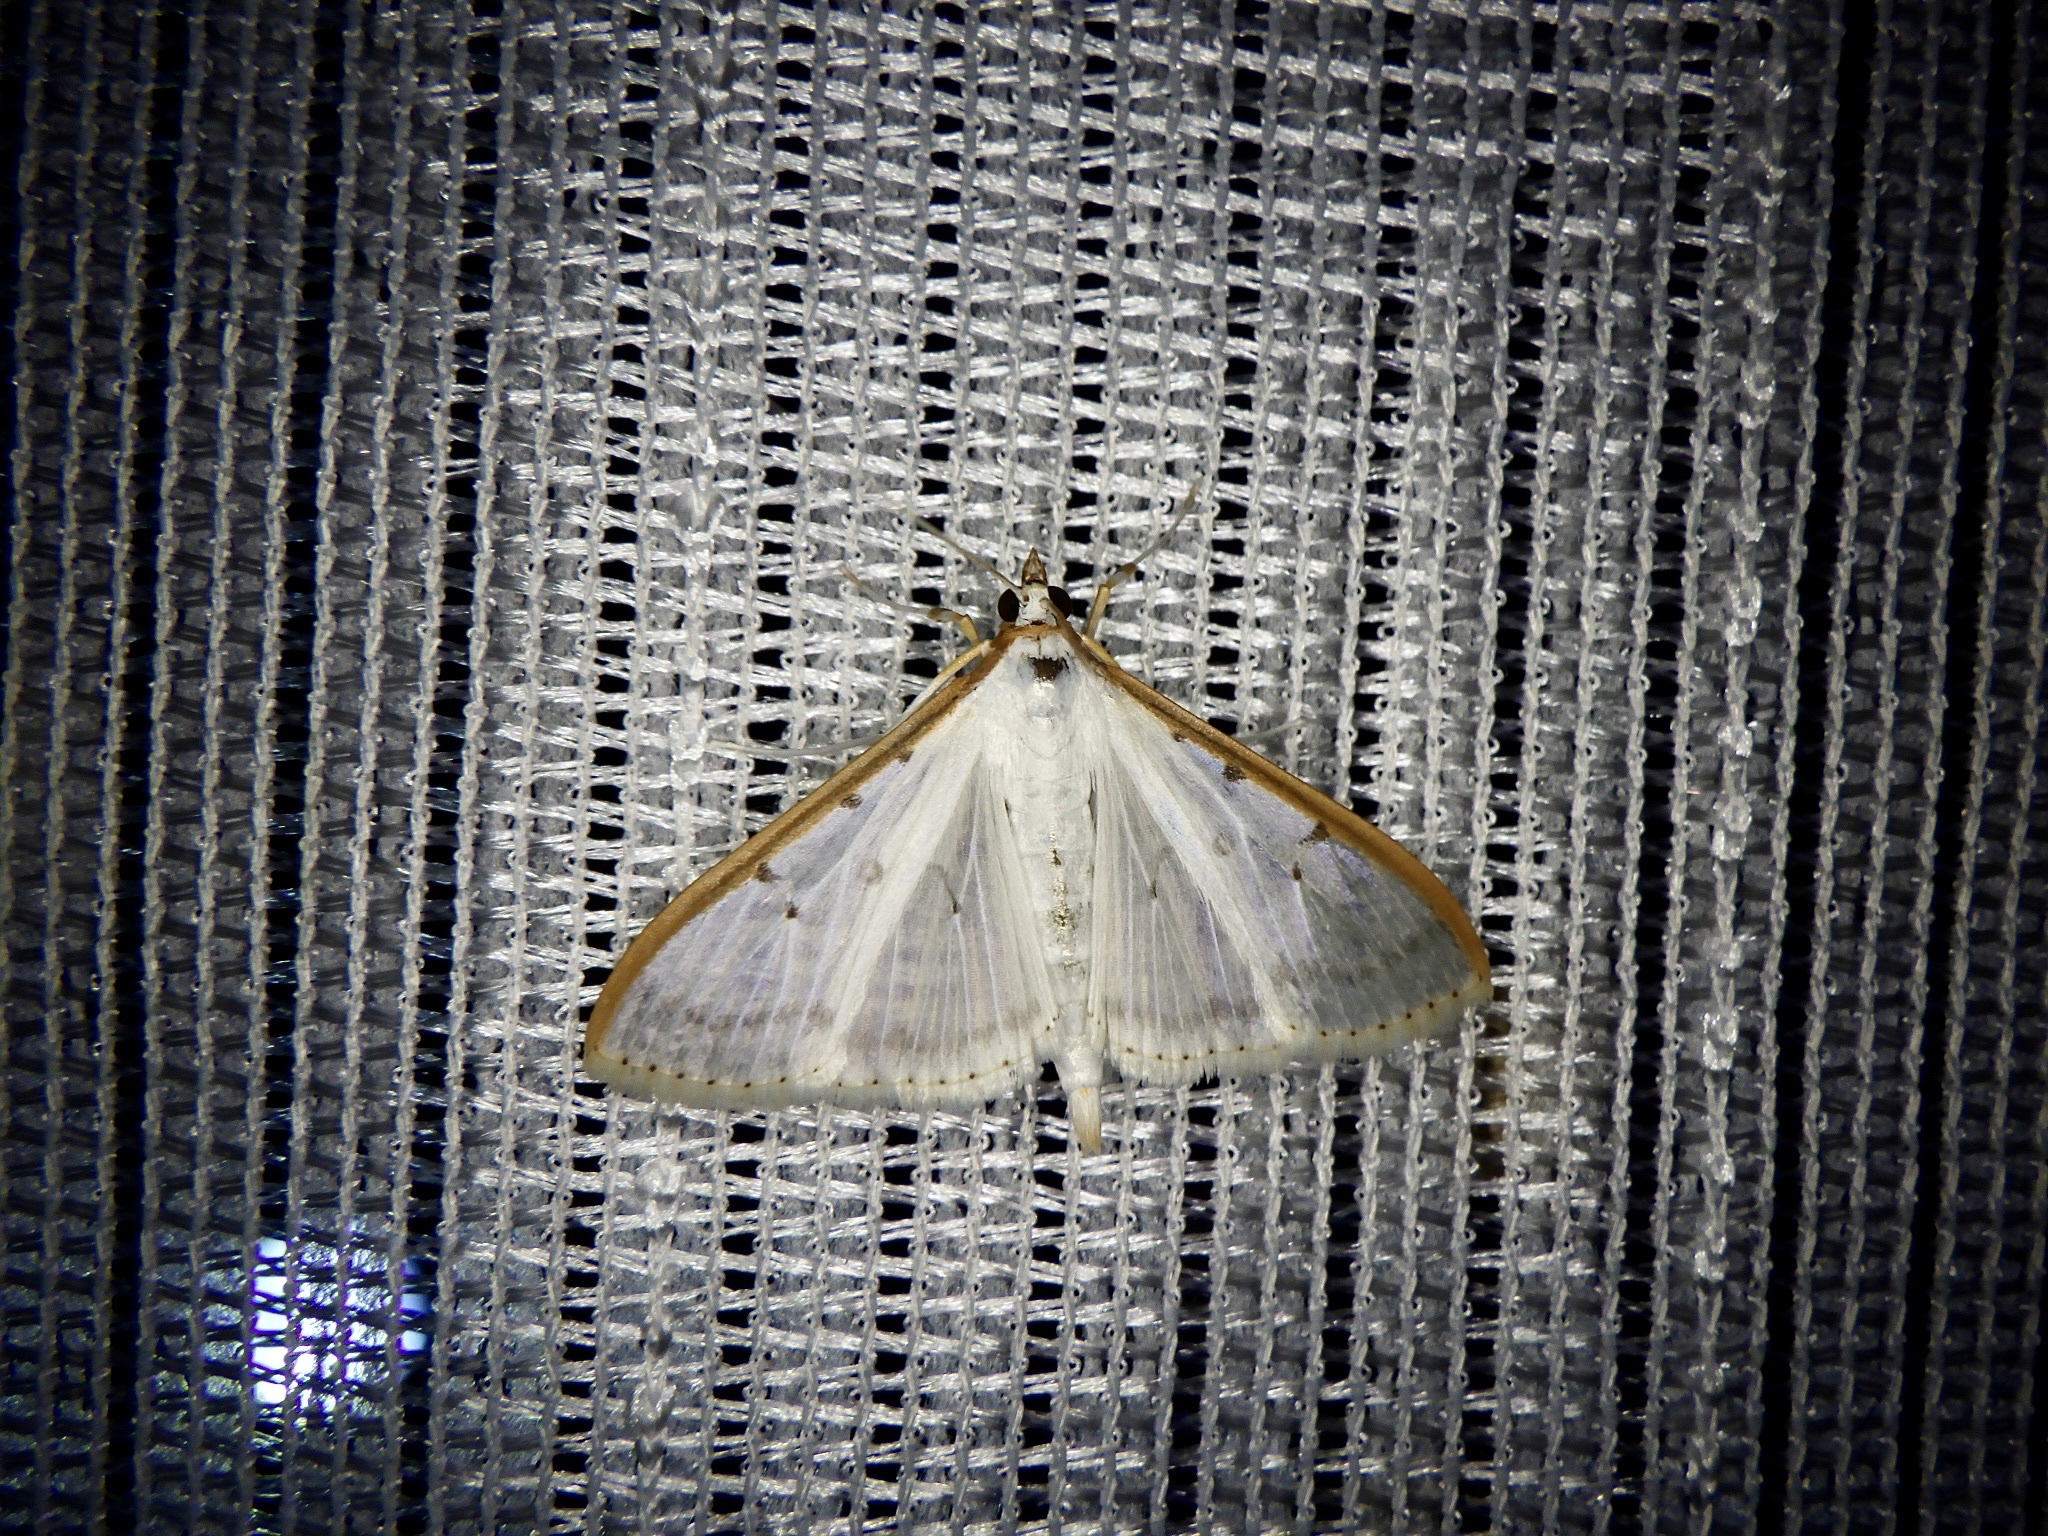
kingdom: Animalia
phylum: Arthropoda
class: Insecta
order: Lepidoptera
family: Crambidae
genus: Palpita
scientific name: Palpita nigropunctalis
